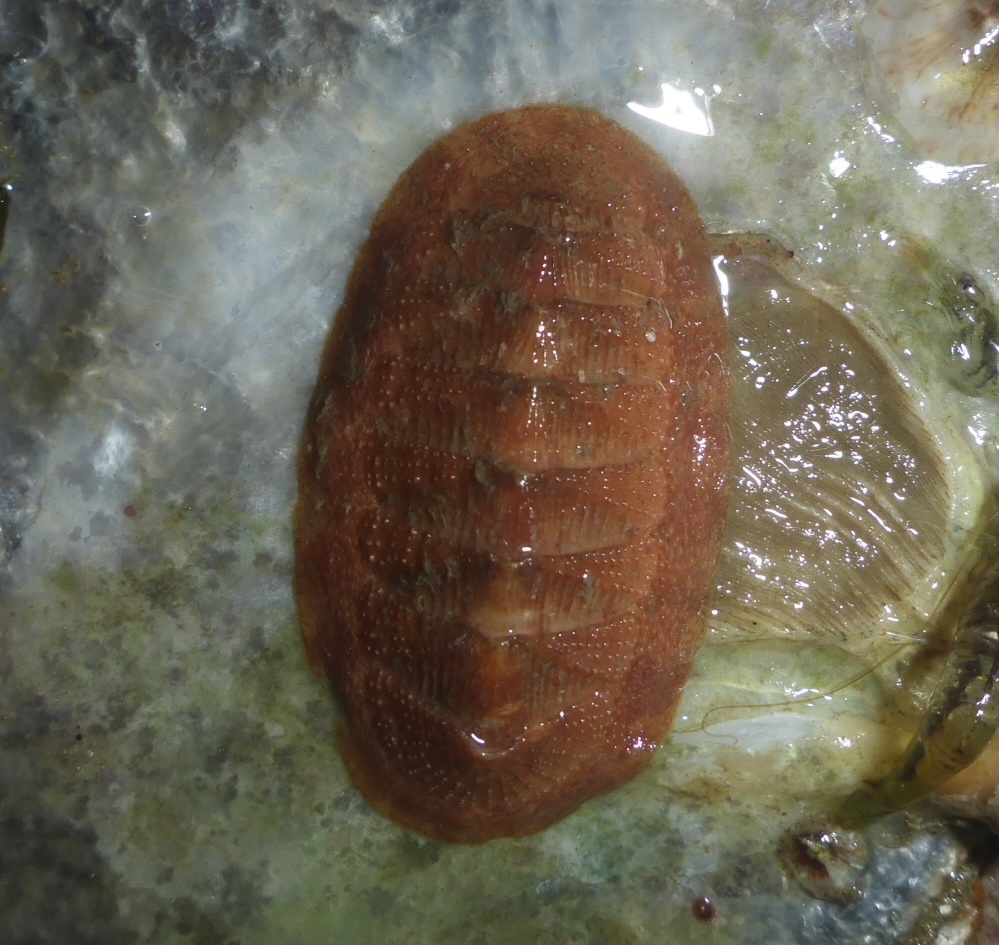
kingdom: Animalia
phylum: Mollusca
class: Polyplacophora
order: Chitonida
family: Ischnochitonidae
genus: Lepidozona
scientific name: Lepidozona mertensii
